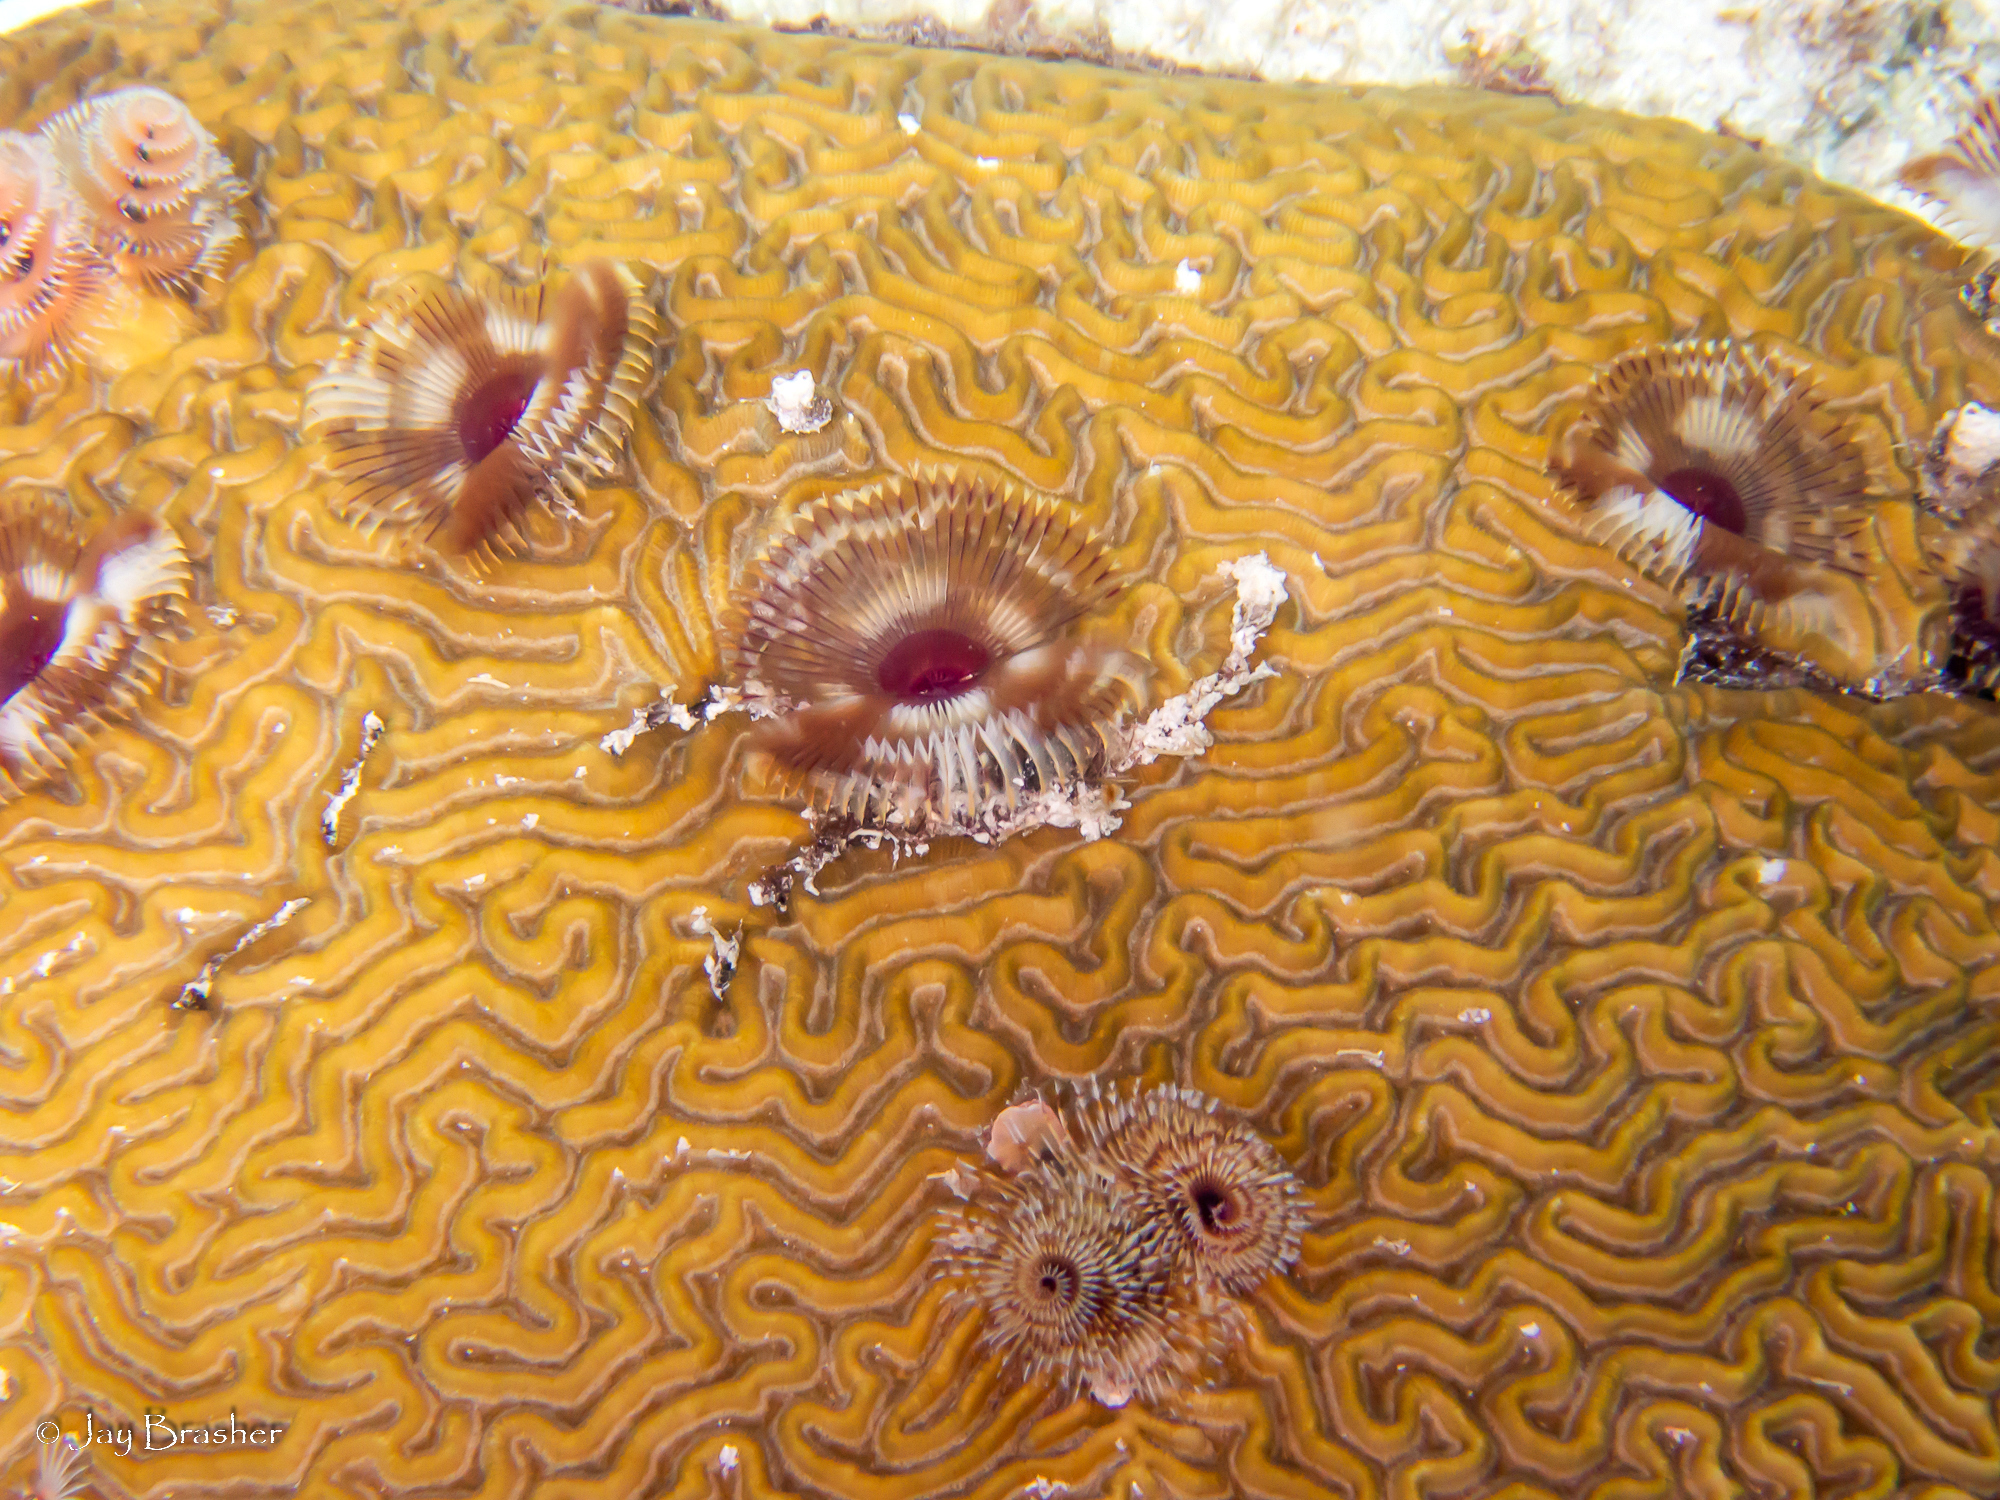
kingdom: Animalia
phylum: Cnidaria
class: Anthozoa
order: Scleractinia
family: Faviidae
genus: Pseudodiploria
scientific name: Pseudodiploria strigosa
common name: Symmetrical brain coral
